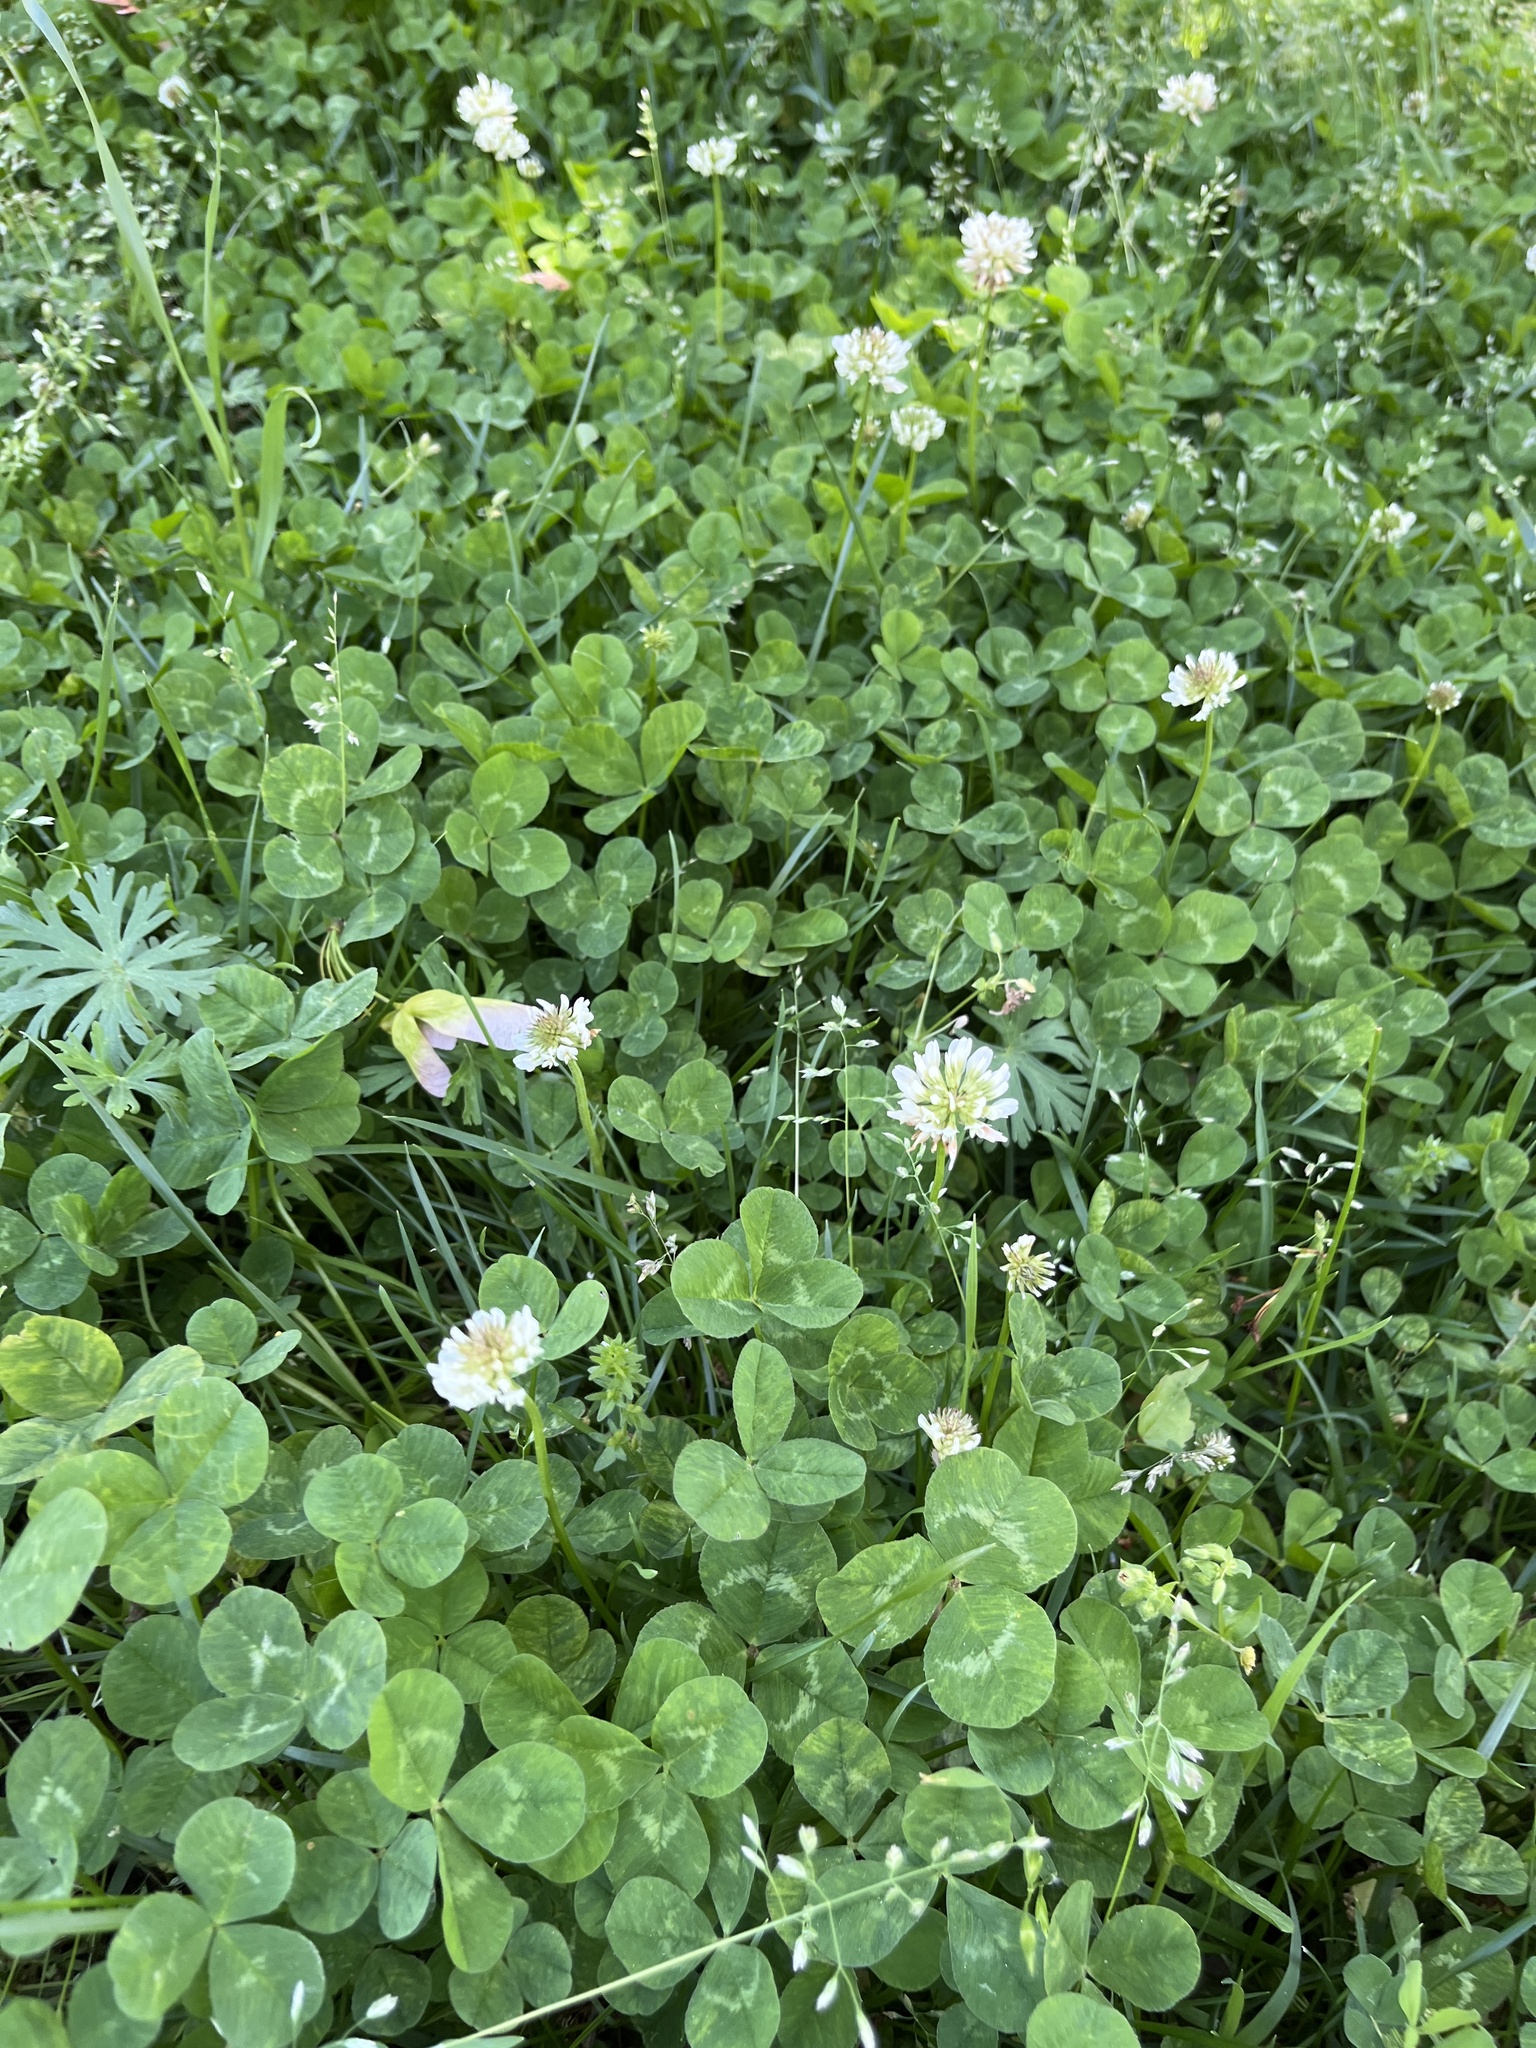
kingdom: Plantae
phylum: Tracheophyta
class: Magnoliopsida
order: Fabales
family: Fabaceae
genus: Trifolium
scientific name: Trifolium repens
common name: White clover
